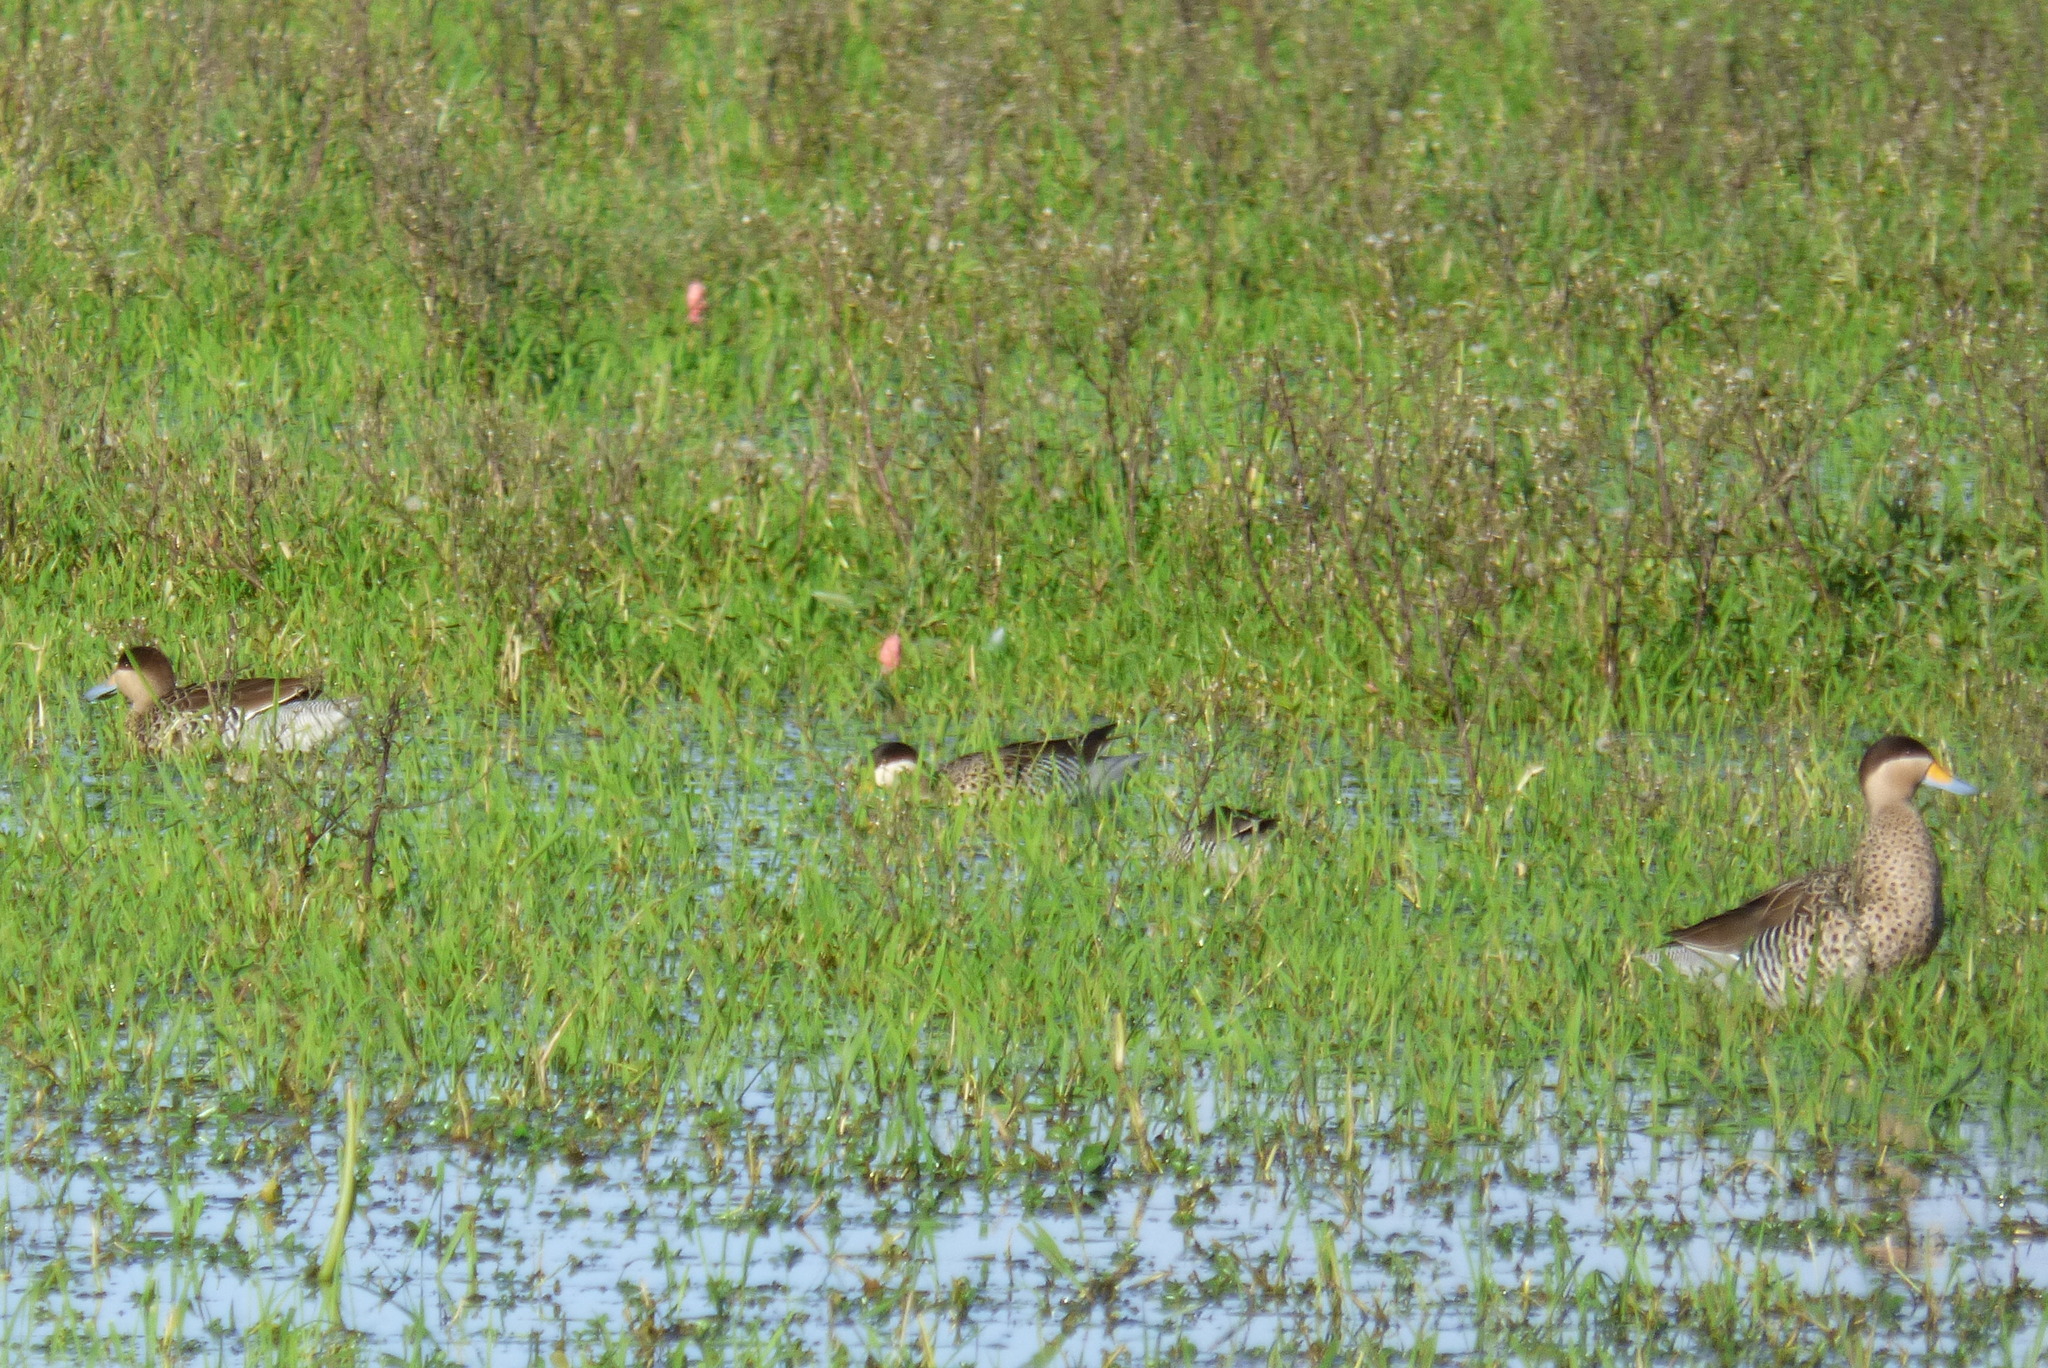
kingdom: Animalia
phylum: Chordata
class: Aves
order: Anseriformes
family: Anatidae
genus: Spatula
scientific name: Spatula versicolor
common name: Silver teal
